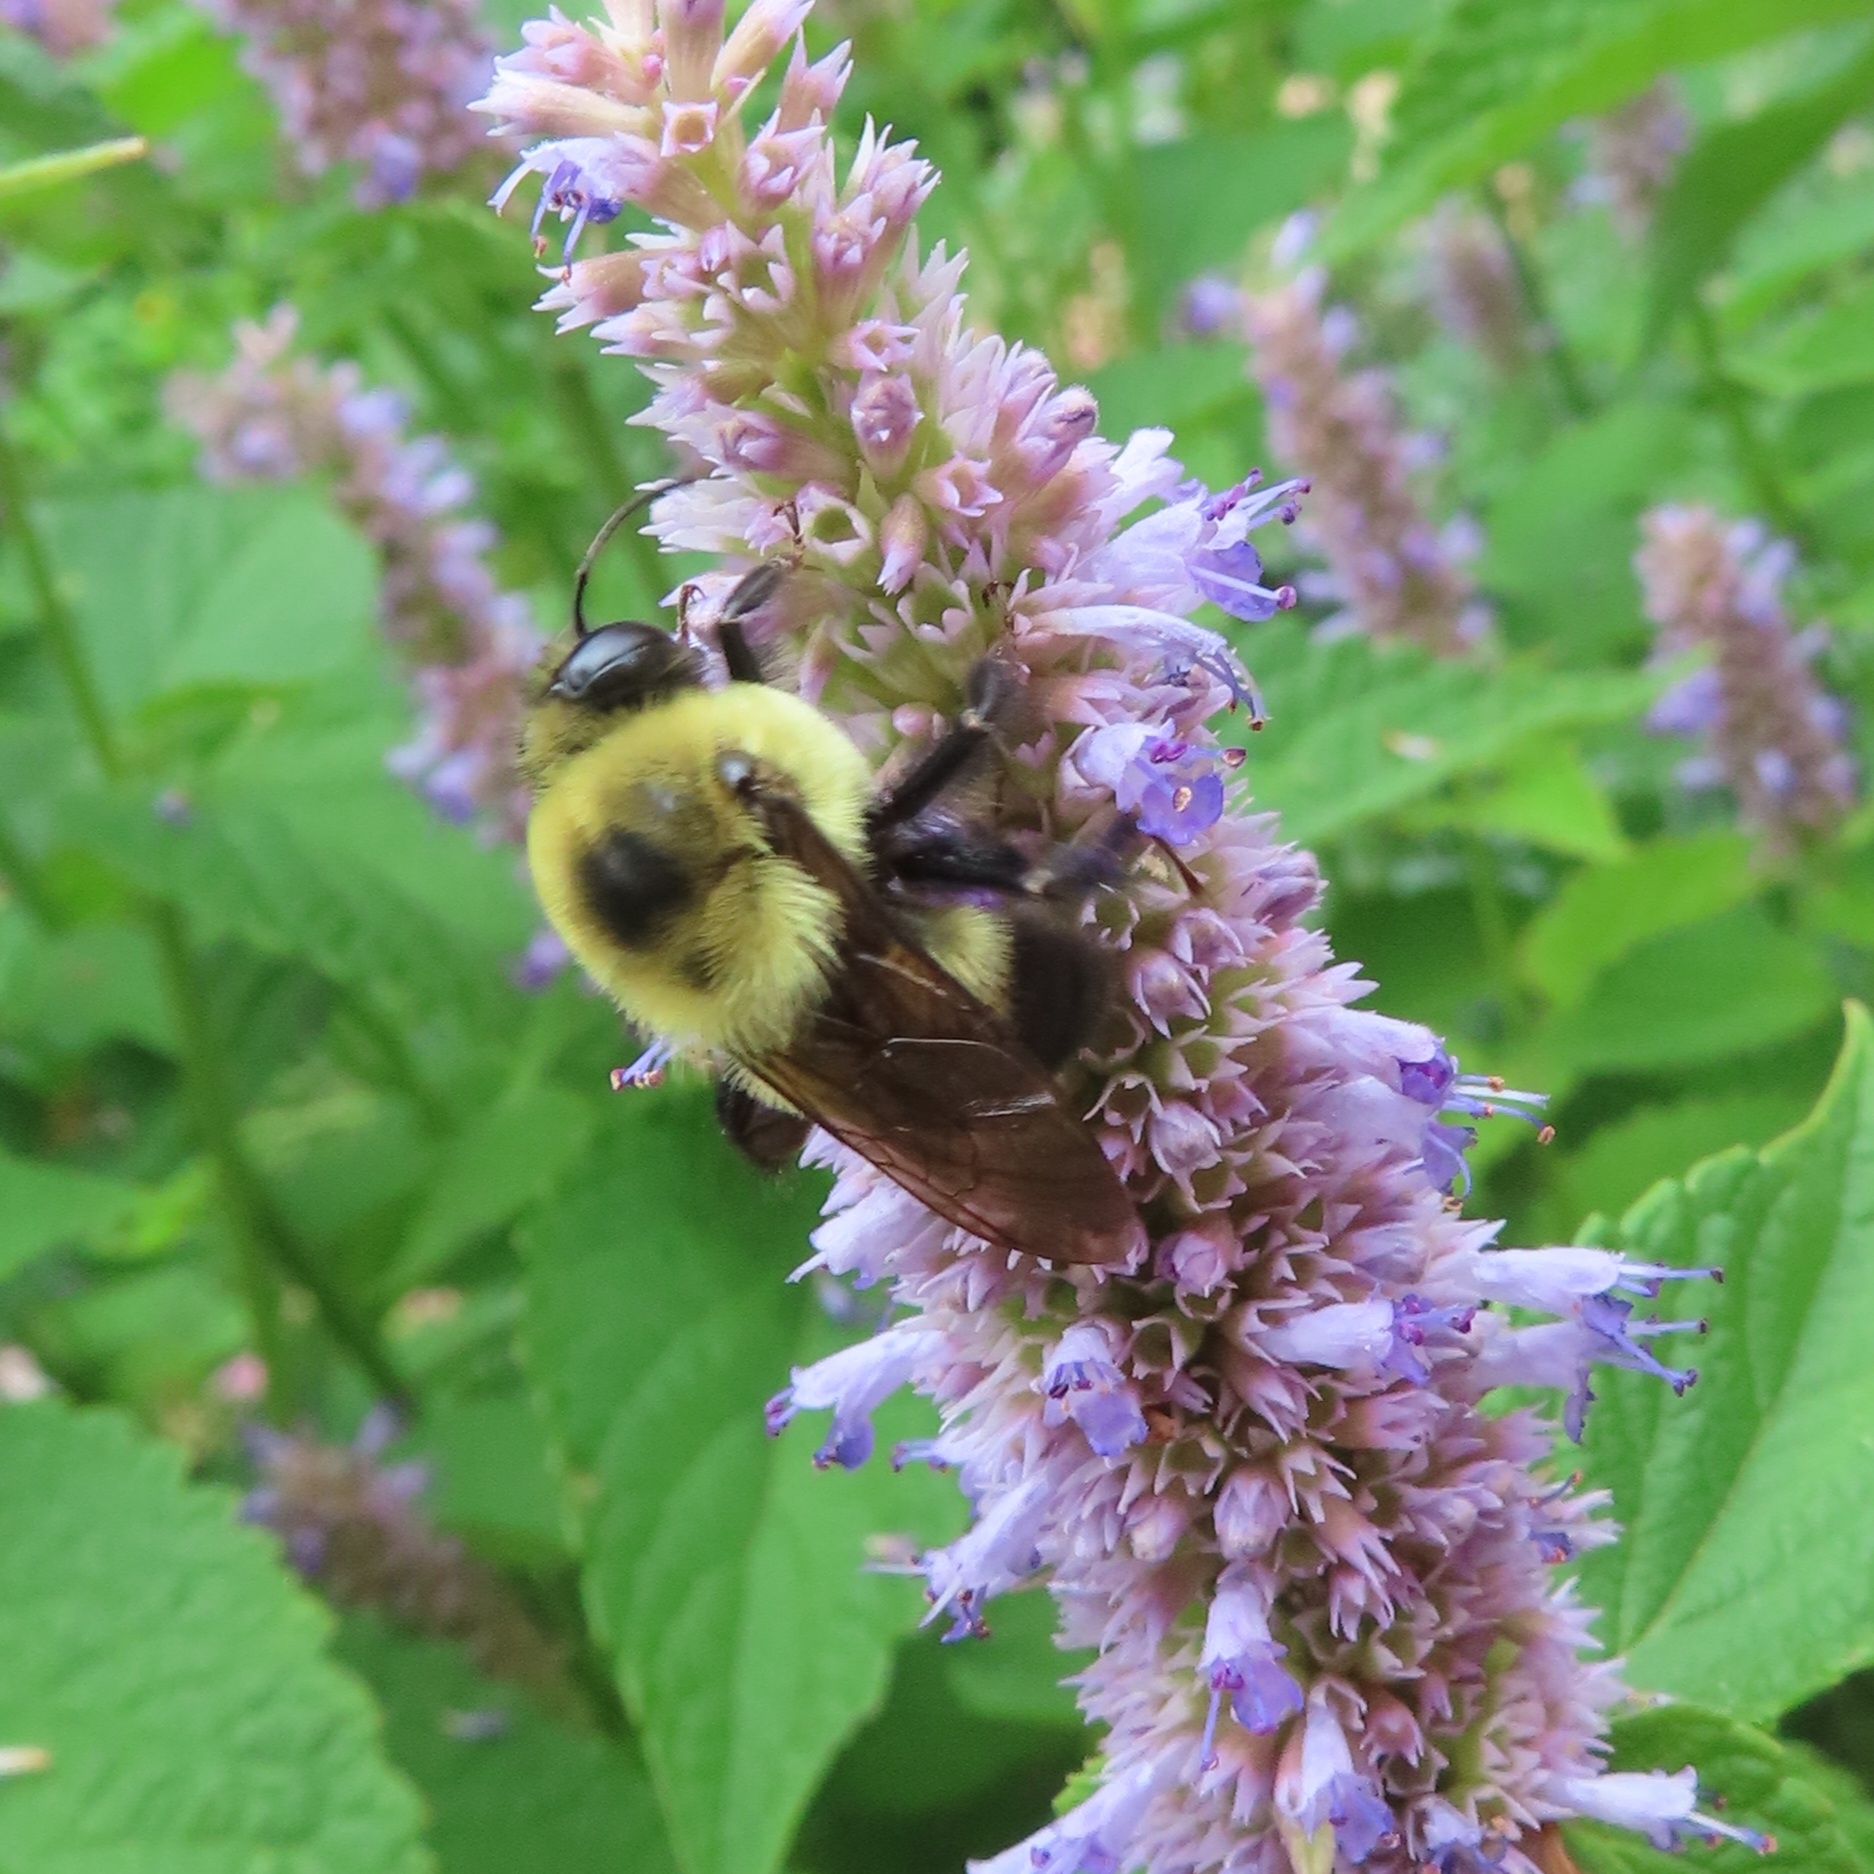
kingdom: Animalia
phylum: Arthropoda
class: Insecta
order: Hymenoptera
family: Apidae
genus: Bombus
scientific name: Bombus griseocollis
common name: Brown-belted bumble bee
